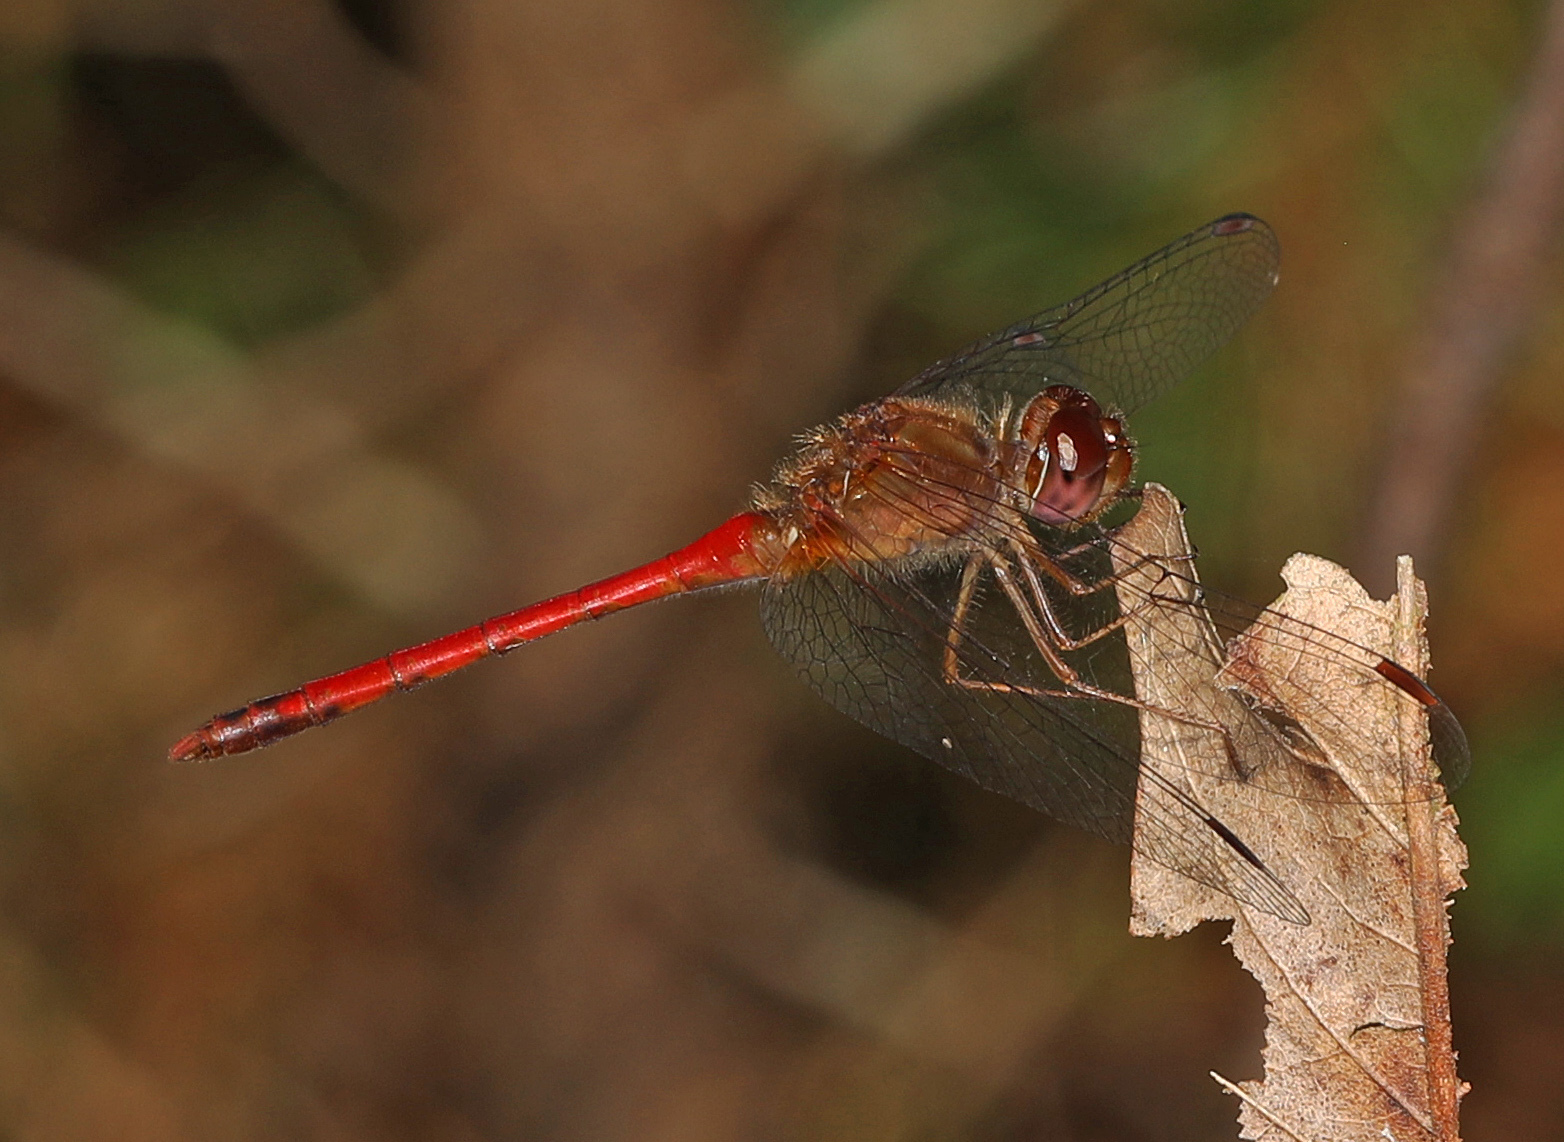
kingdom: Animalia
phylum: Arthropoda
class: Insecta
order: Odonata
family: Libellulidae
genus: Sympetrum
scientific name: Sympetrum vicinum
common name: Autumn meadowhawk
